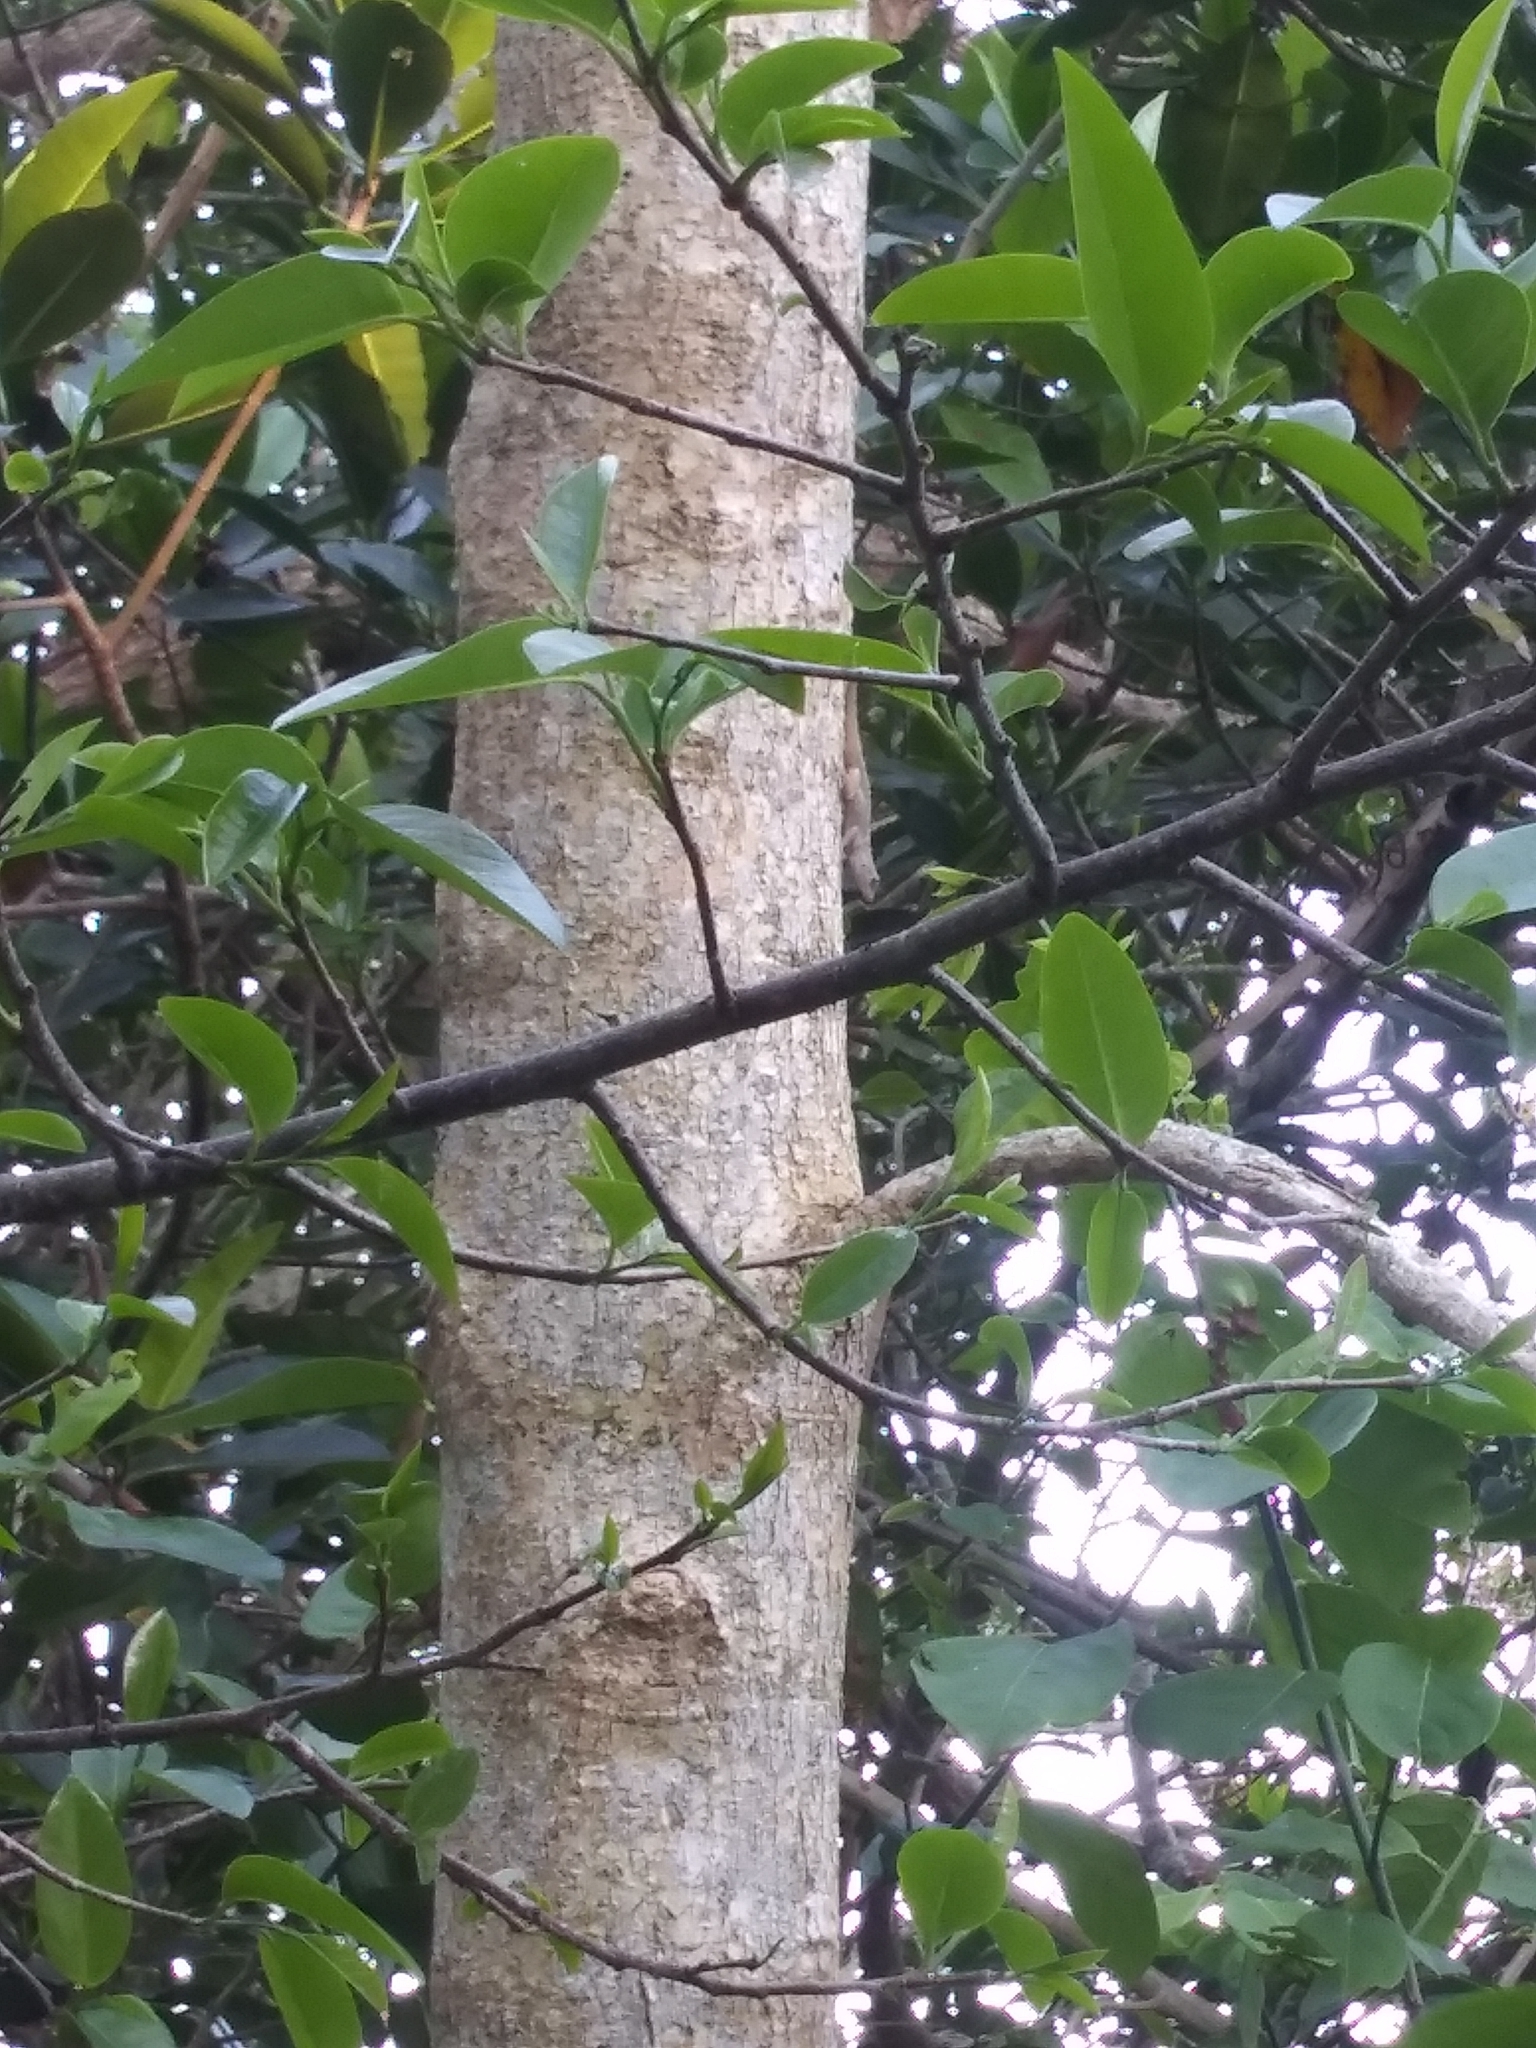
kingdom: Animalia
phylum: Chordata
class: Squamata
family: Dactyloidae
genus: Anolis
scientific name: Anolis distichus
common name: Bark anole
